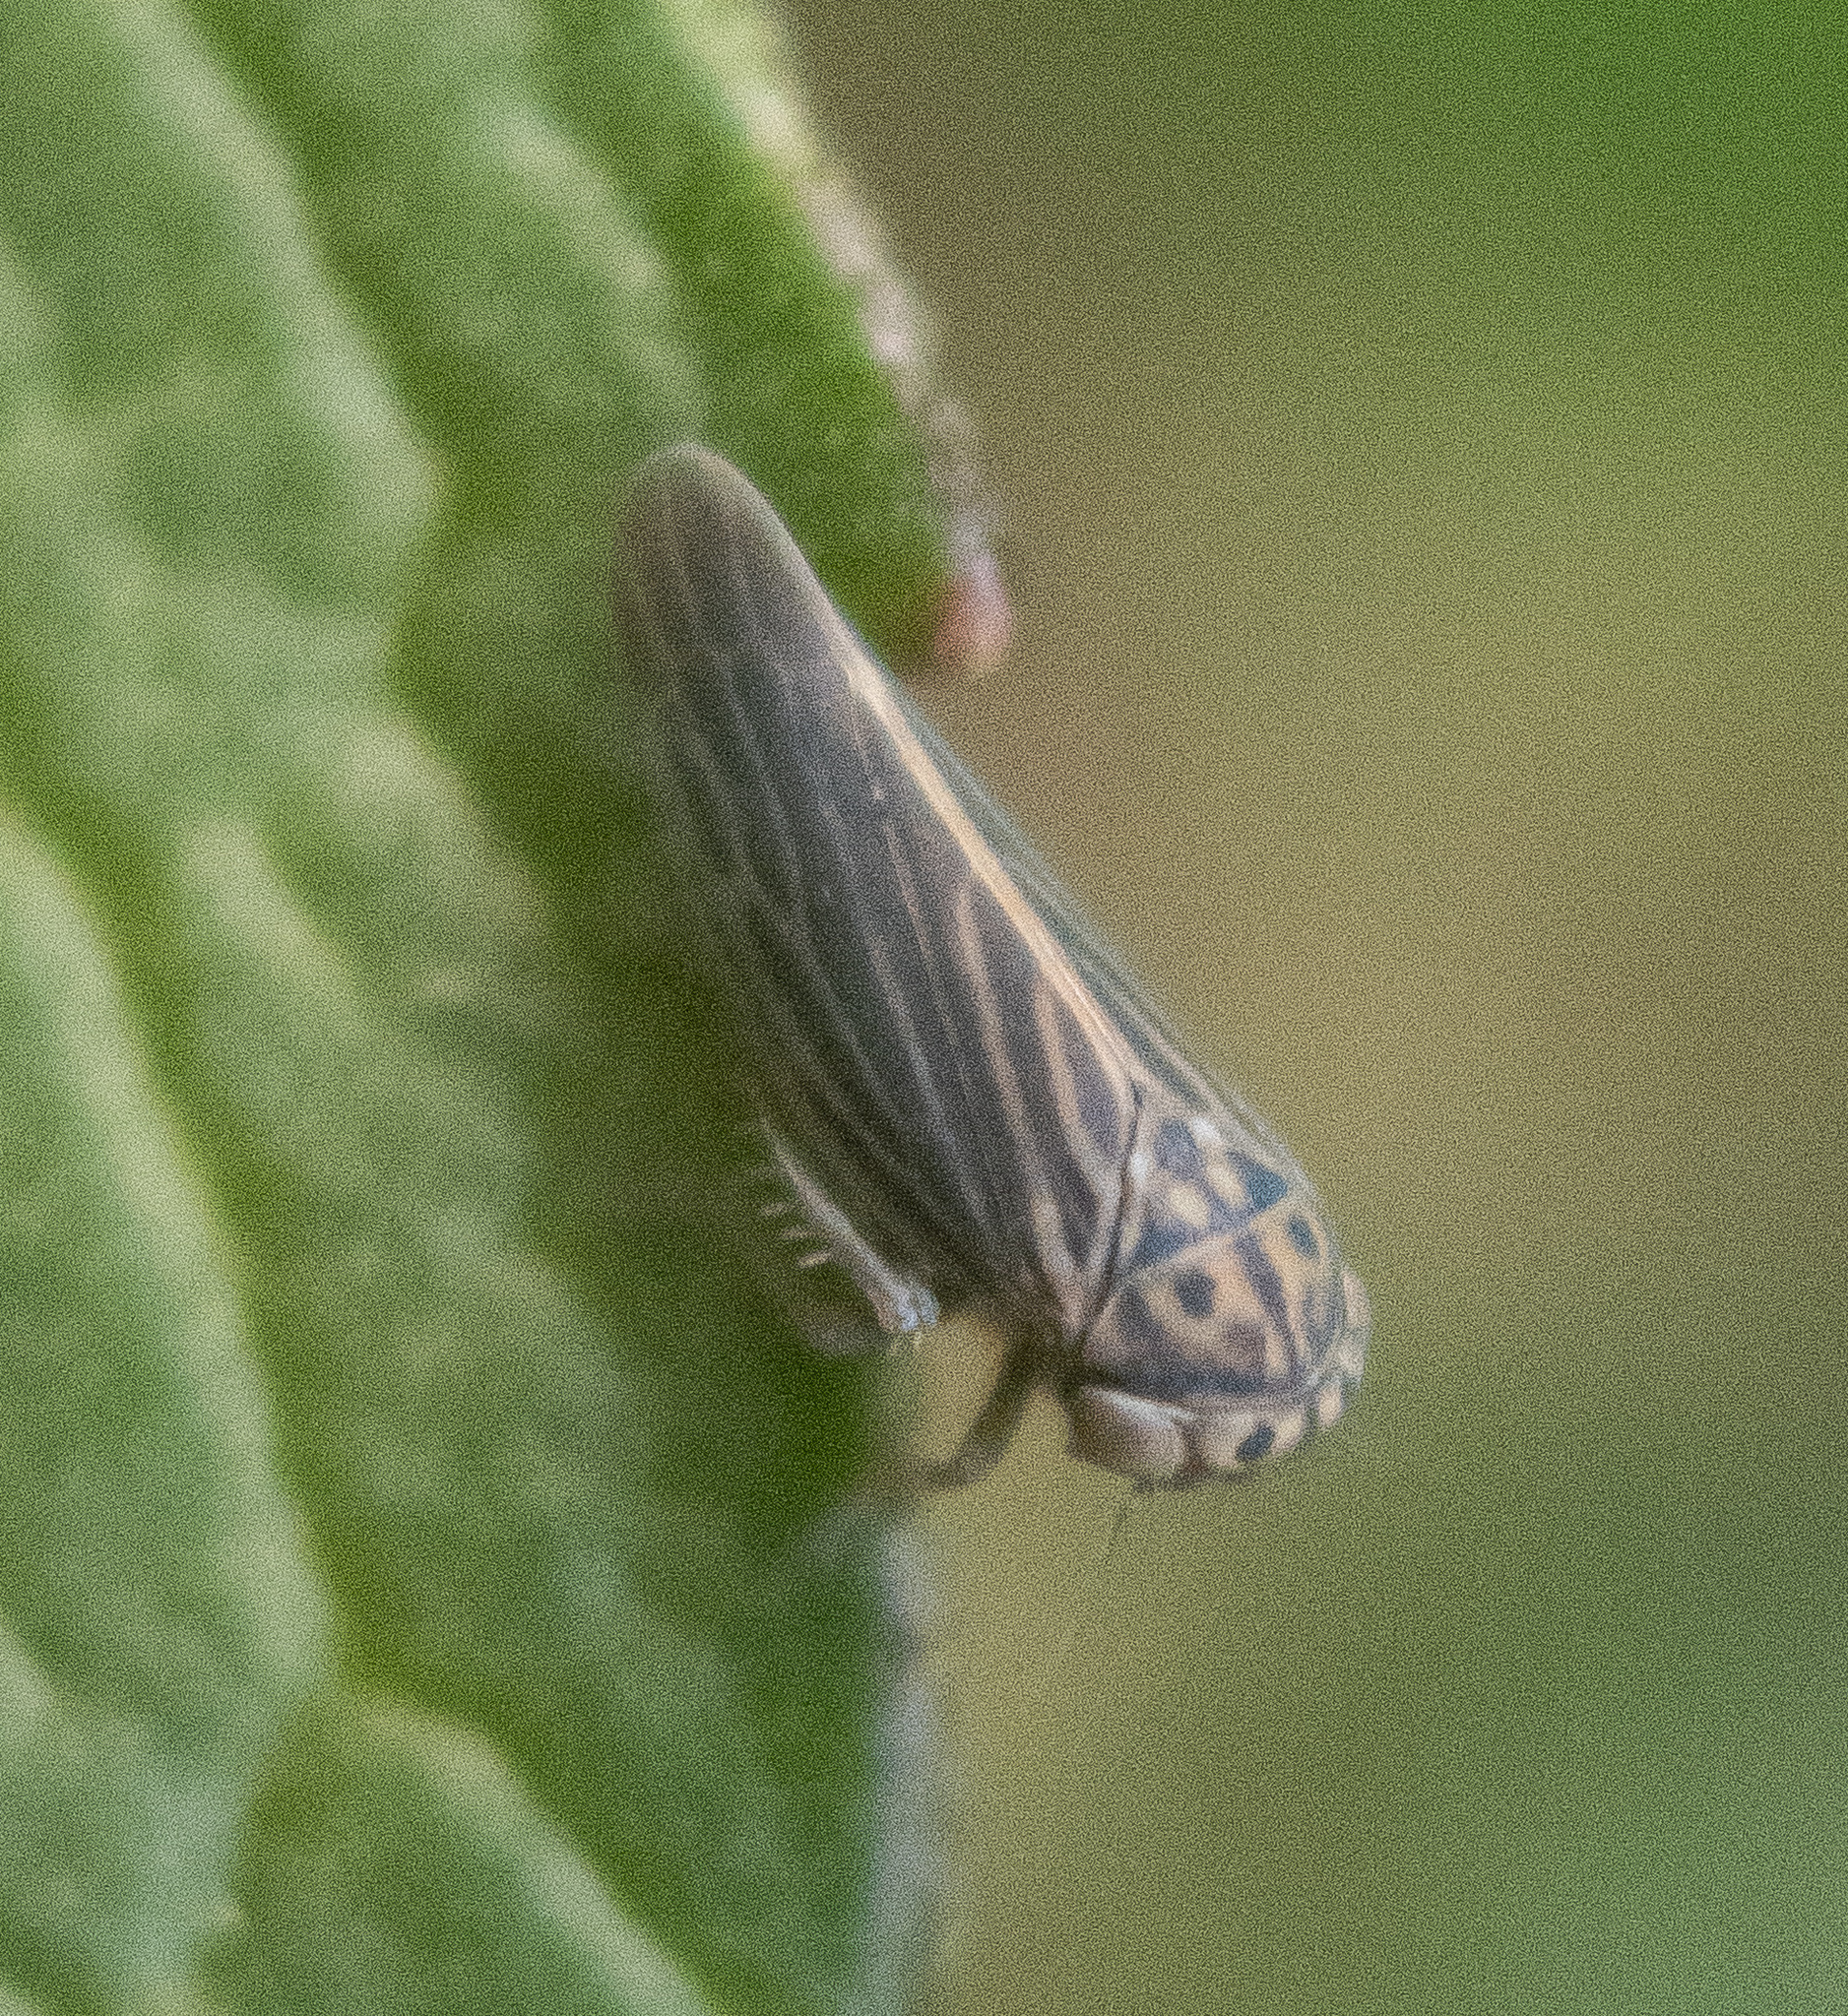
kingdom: Animalia
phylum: Arthropoda
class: Insecta
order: Hemiptera
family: Cicadellidae
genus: Agallia
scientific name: Agallia constricta
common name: The constricted leafhopper
